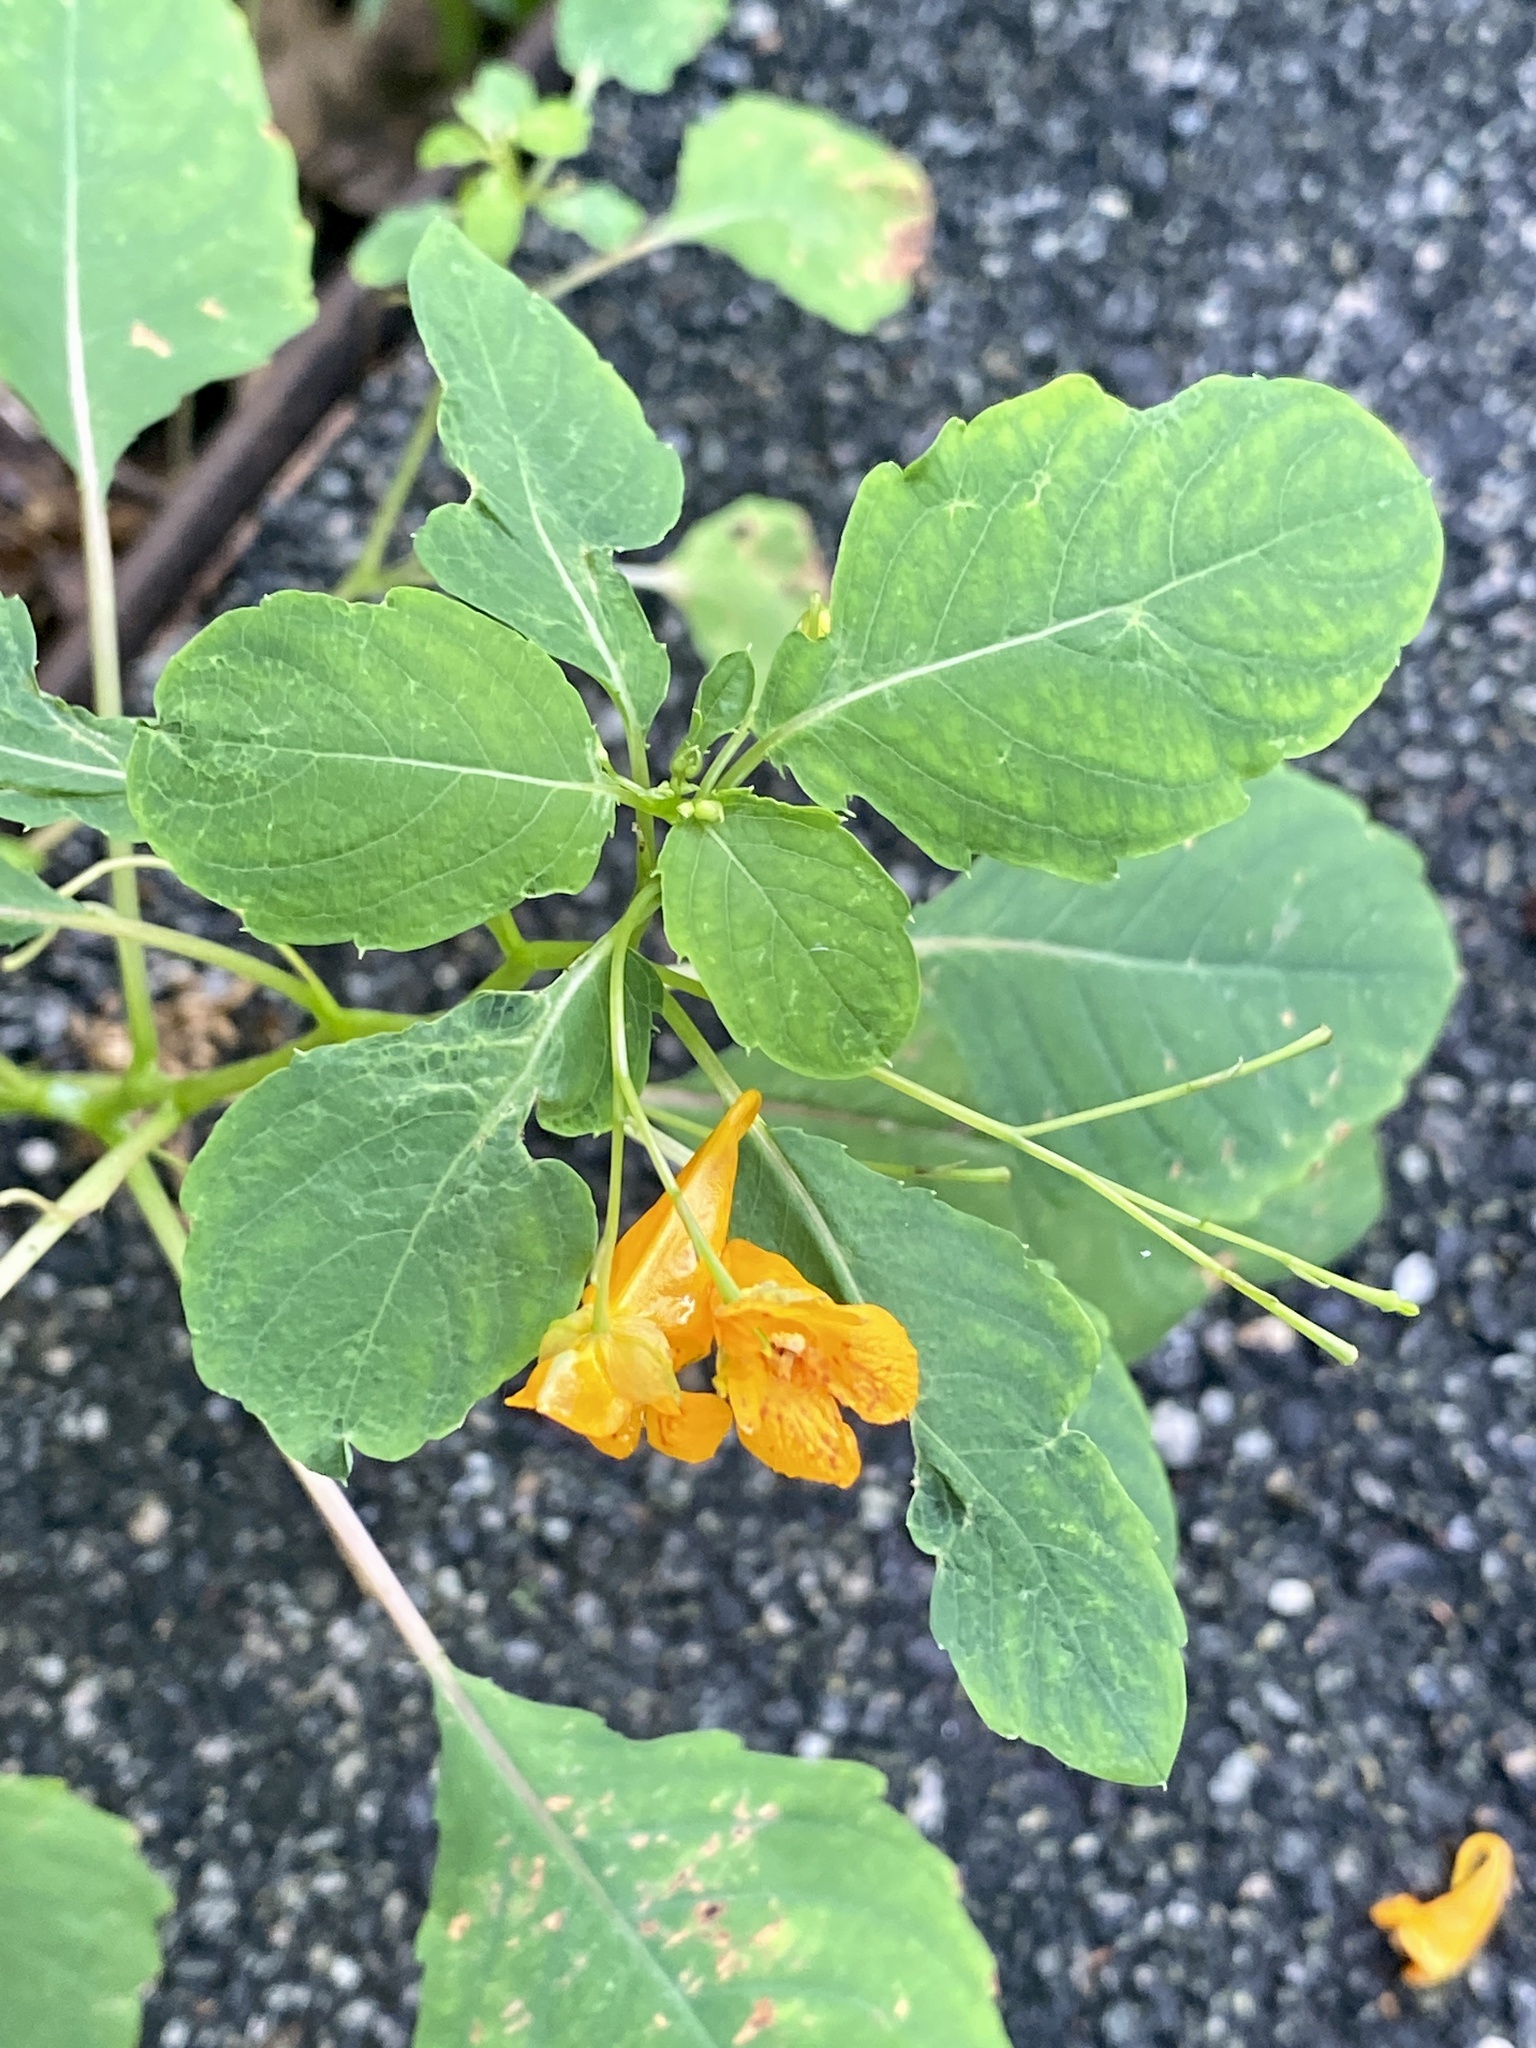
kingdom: Plantae
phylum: Tracheophyta
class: Magnoliopsida
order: Ericales
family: Balsaminaceae
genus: Impatiens
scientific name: Impatiens capensis
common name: Orange balsam
